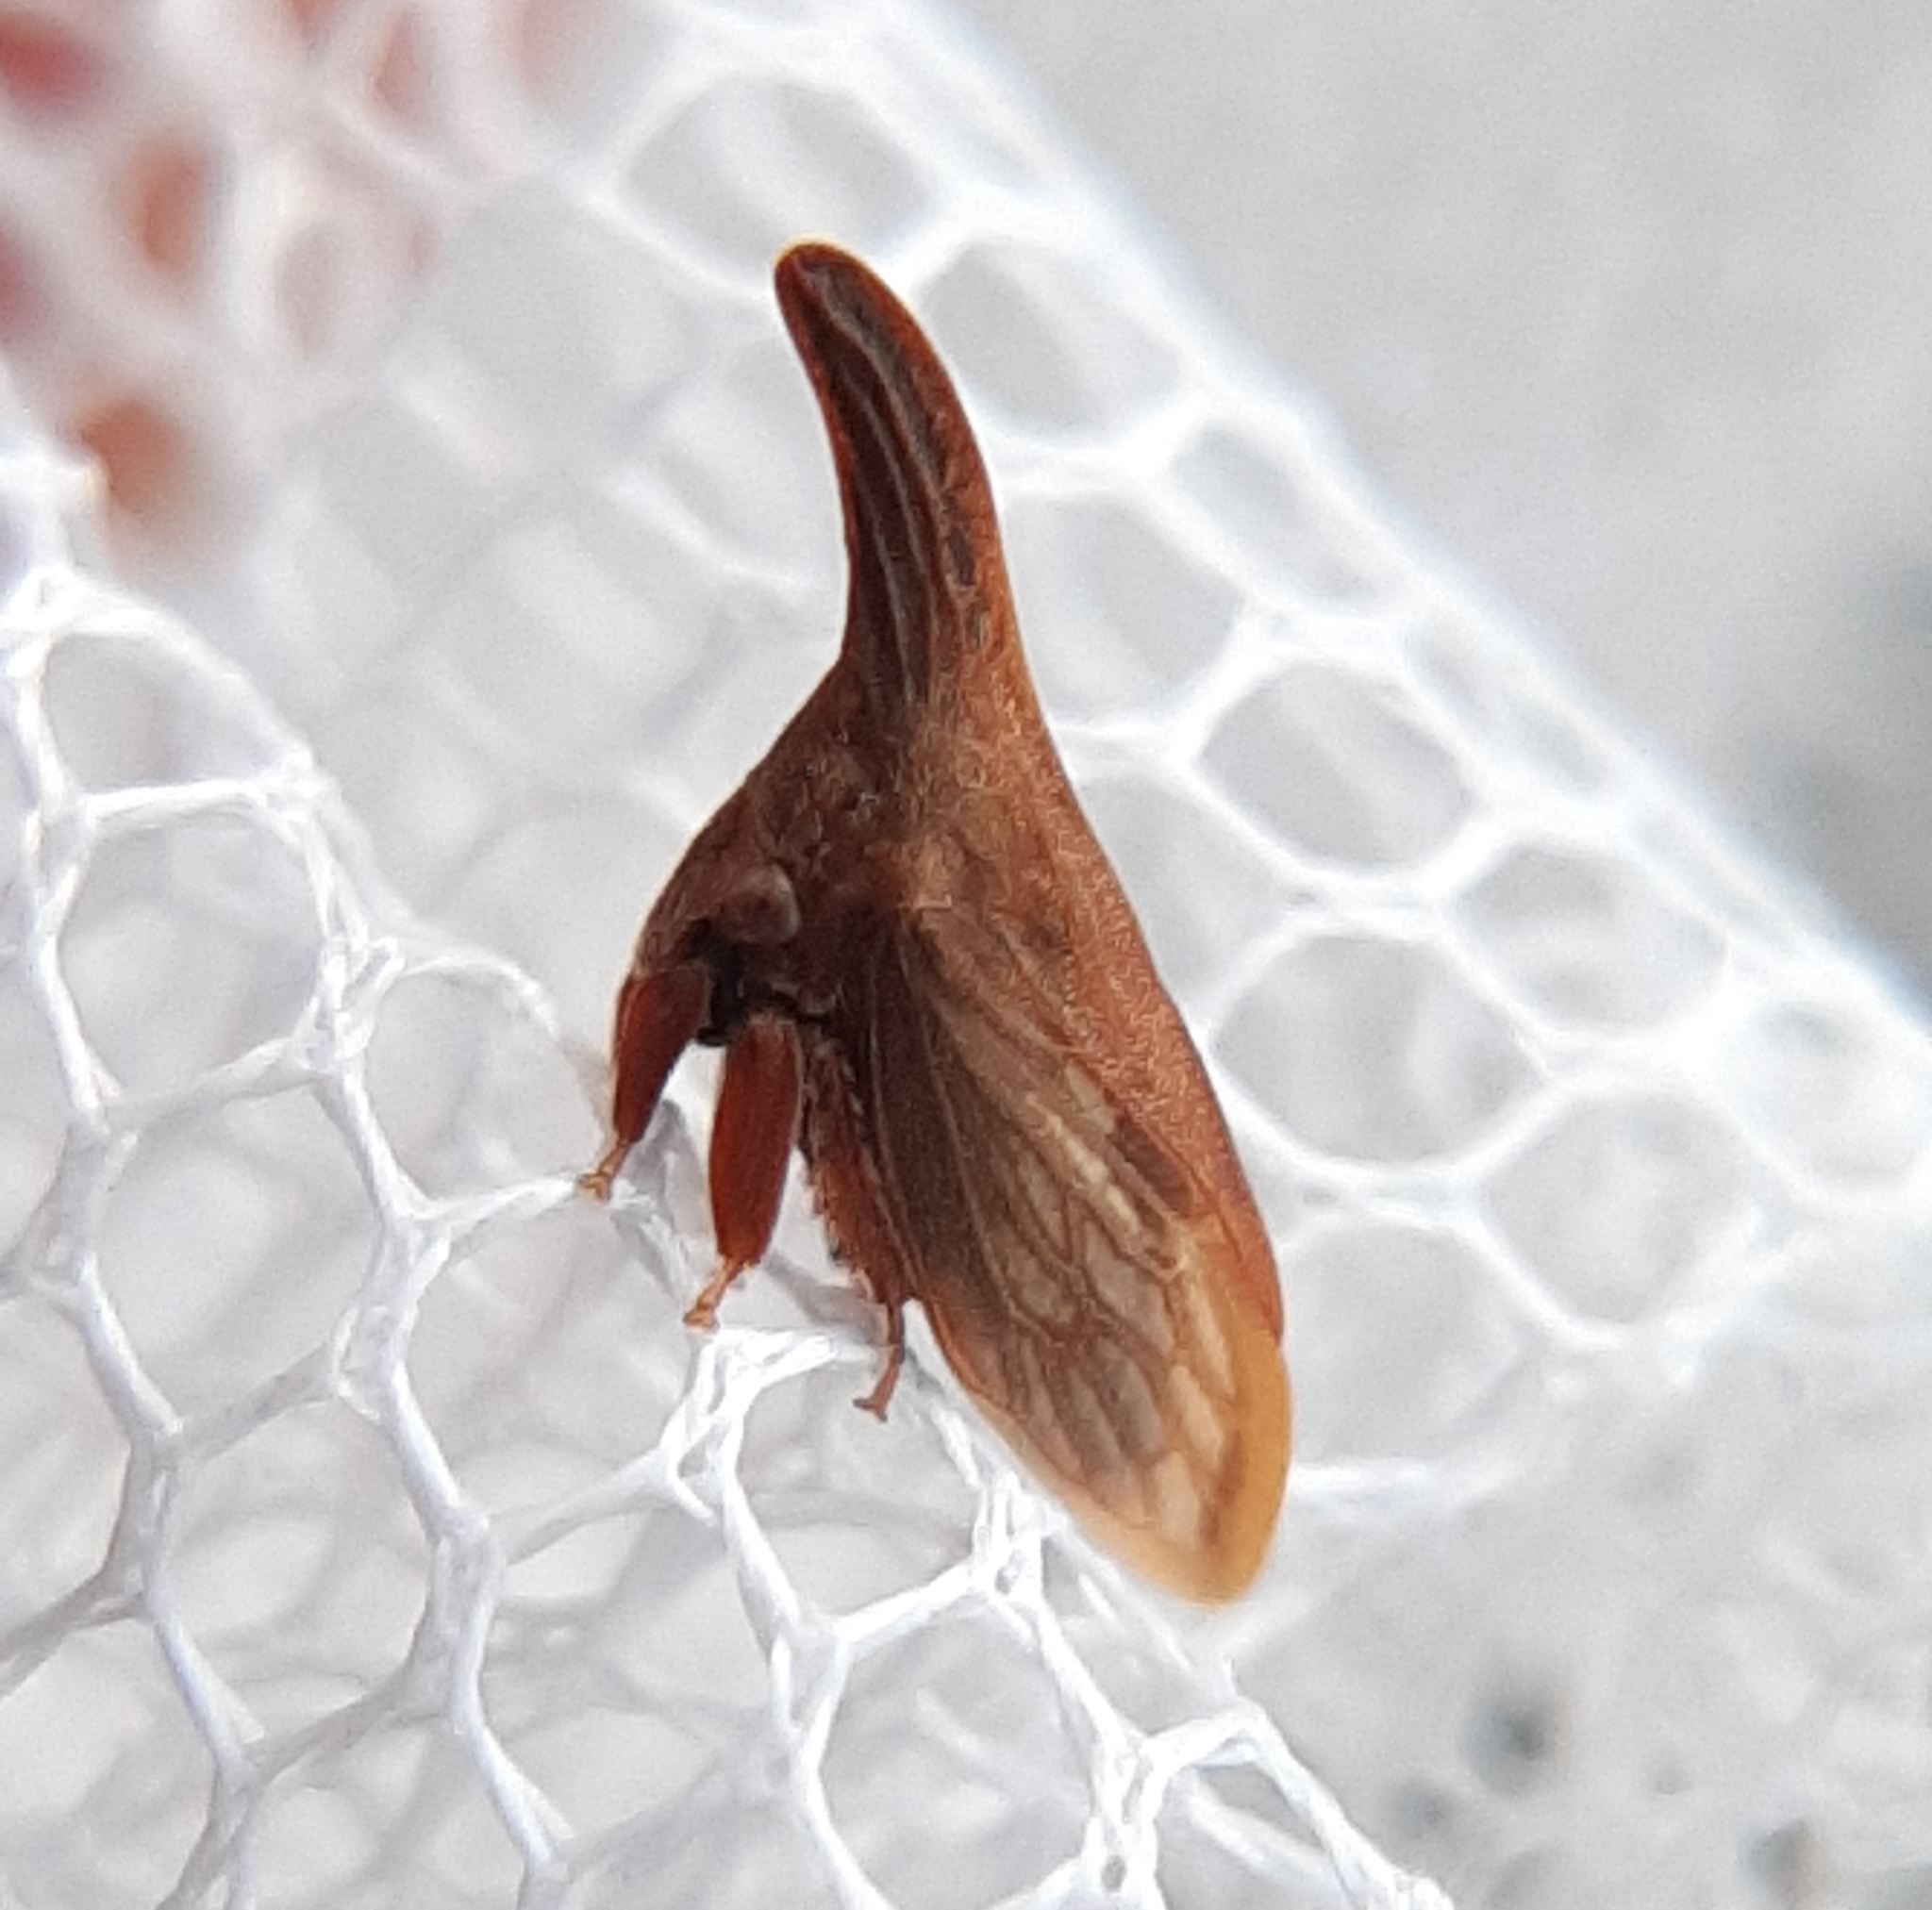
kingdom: Animalia
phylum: Arthropoda
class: Insecta
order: Hemiptera
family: Membracidae
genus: Enchenopa
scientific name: Enchenopa latipes
